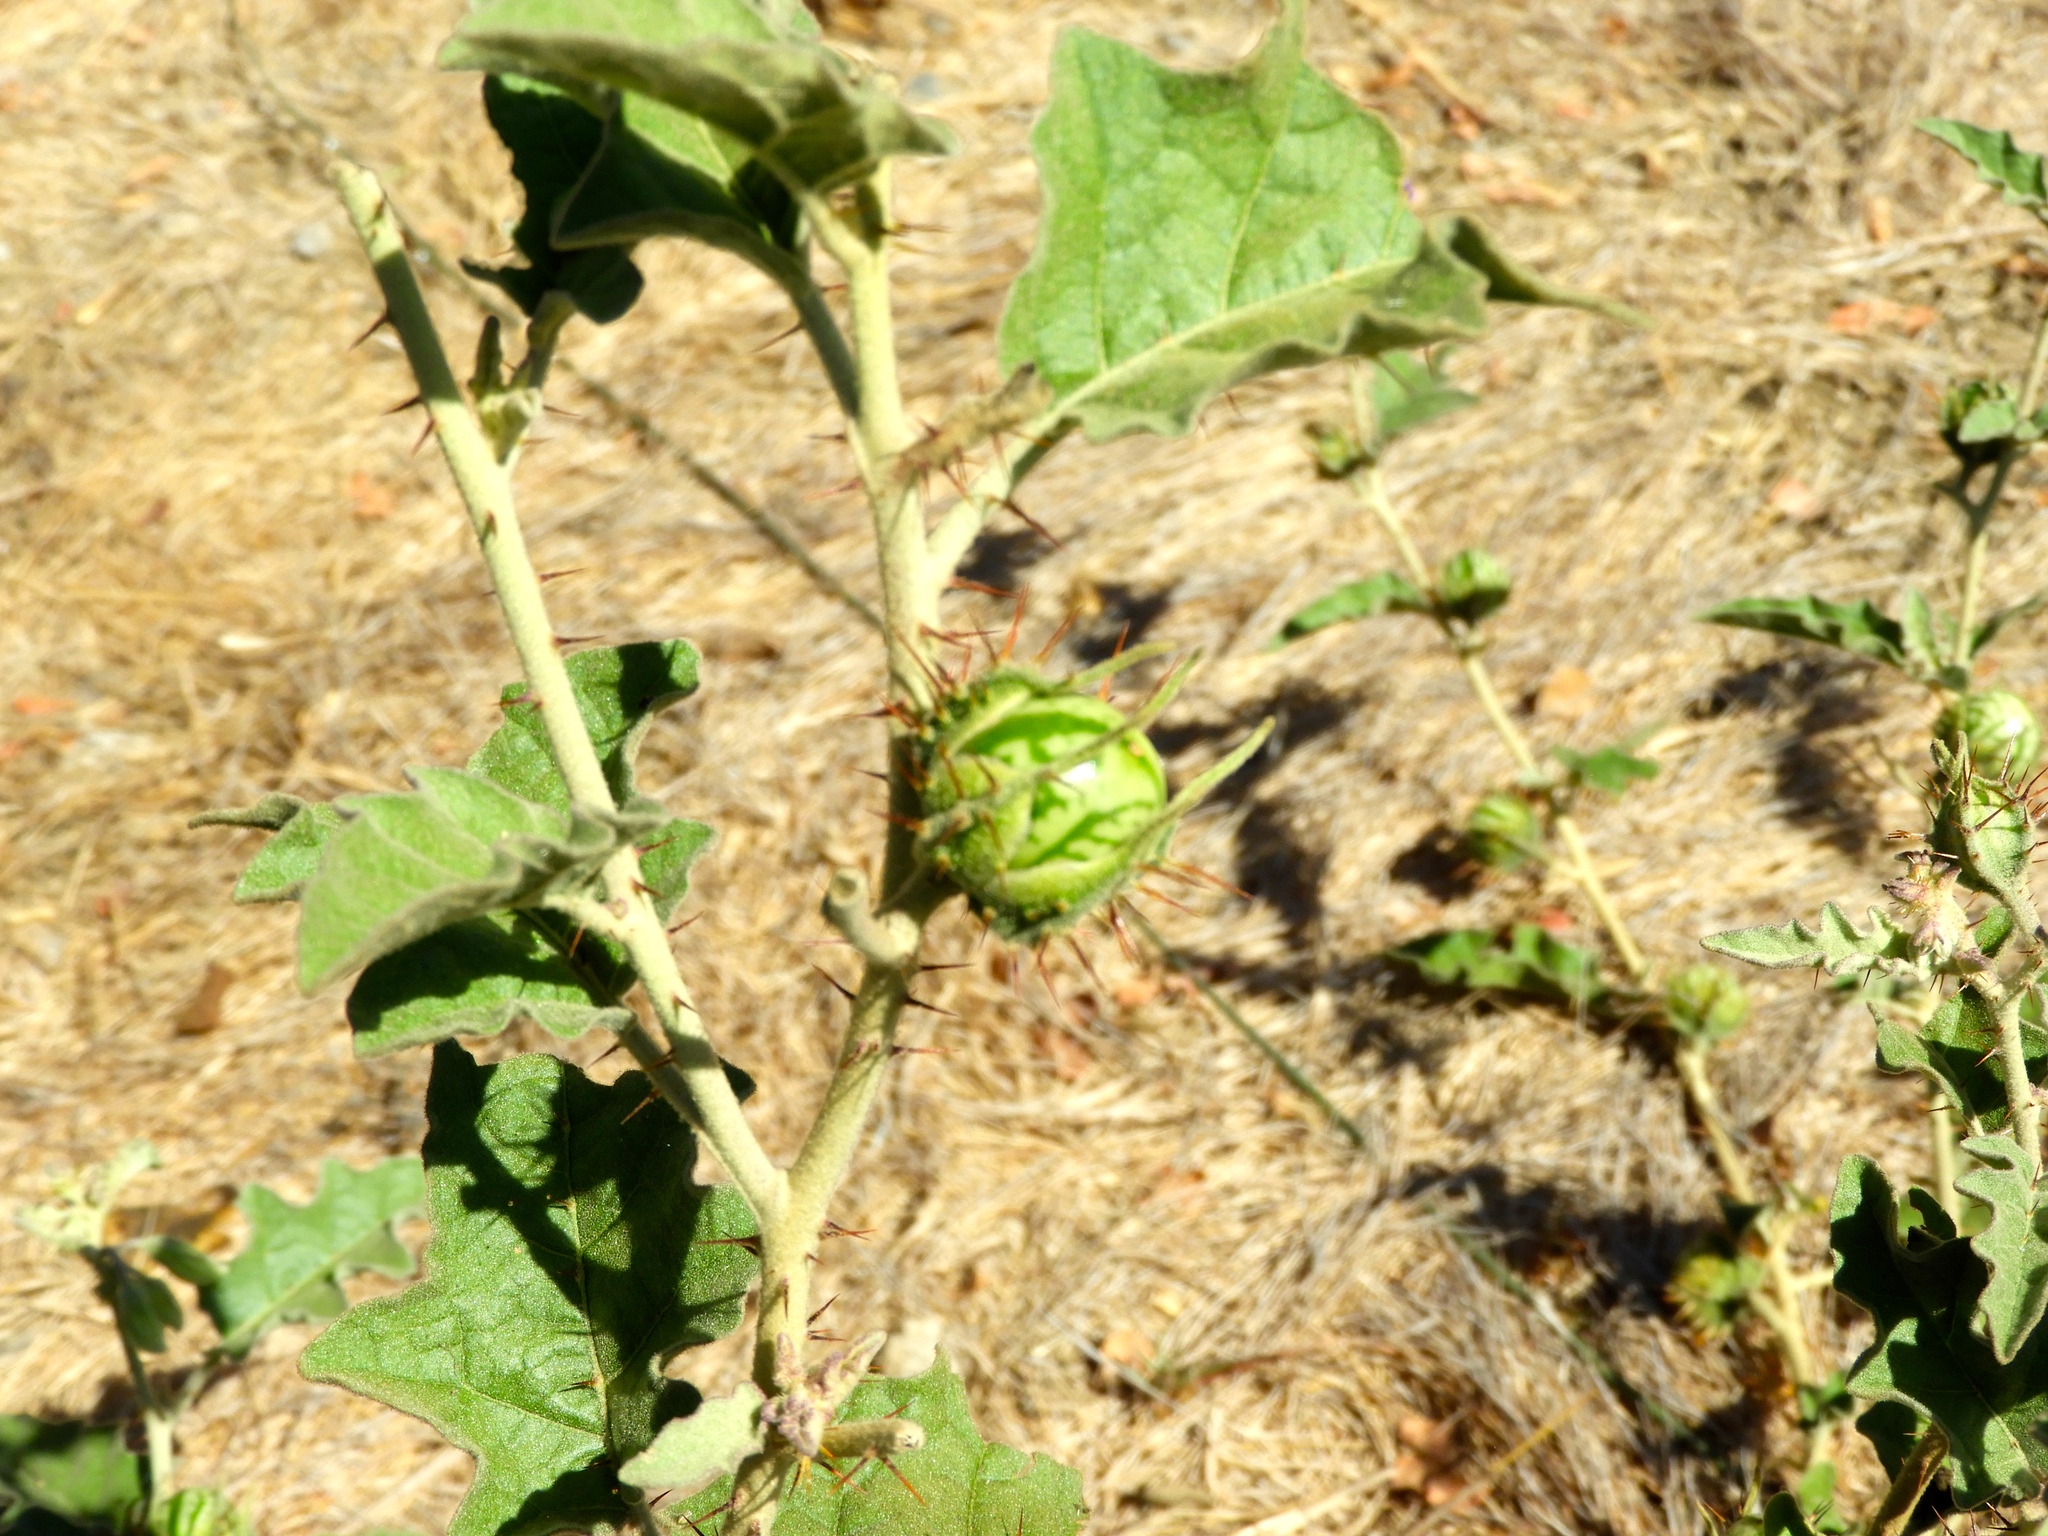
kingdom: Plantae
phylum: Tracheophyta
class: Magnoliopsida
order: Solanales
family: Solanaceae
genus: Solanum
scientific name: Solanum houstonii
